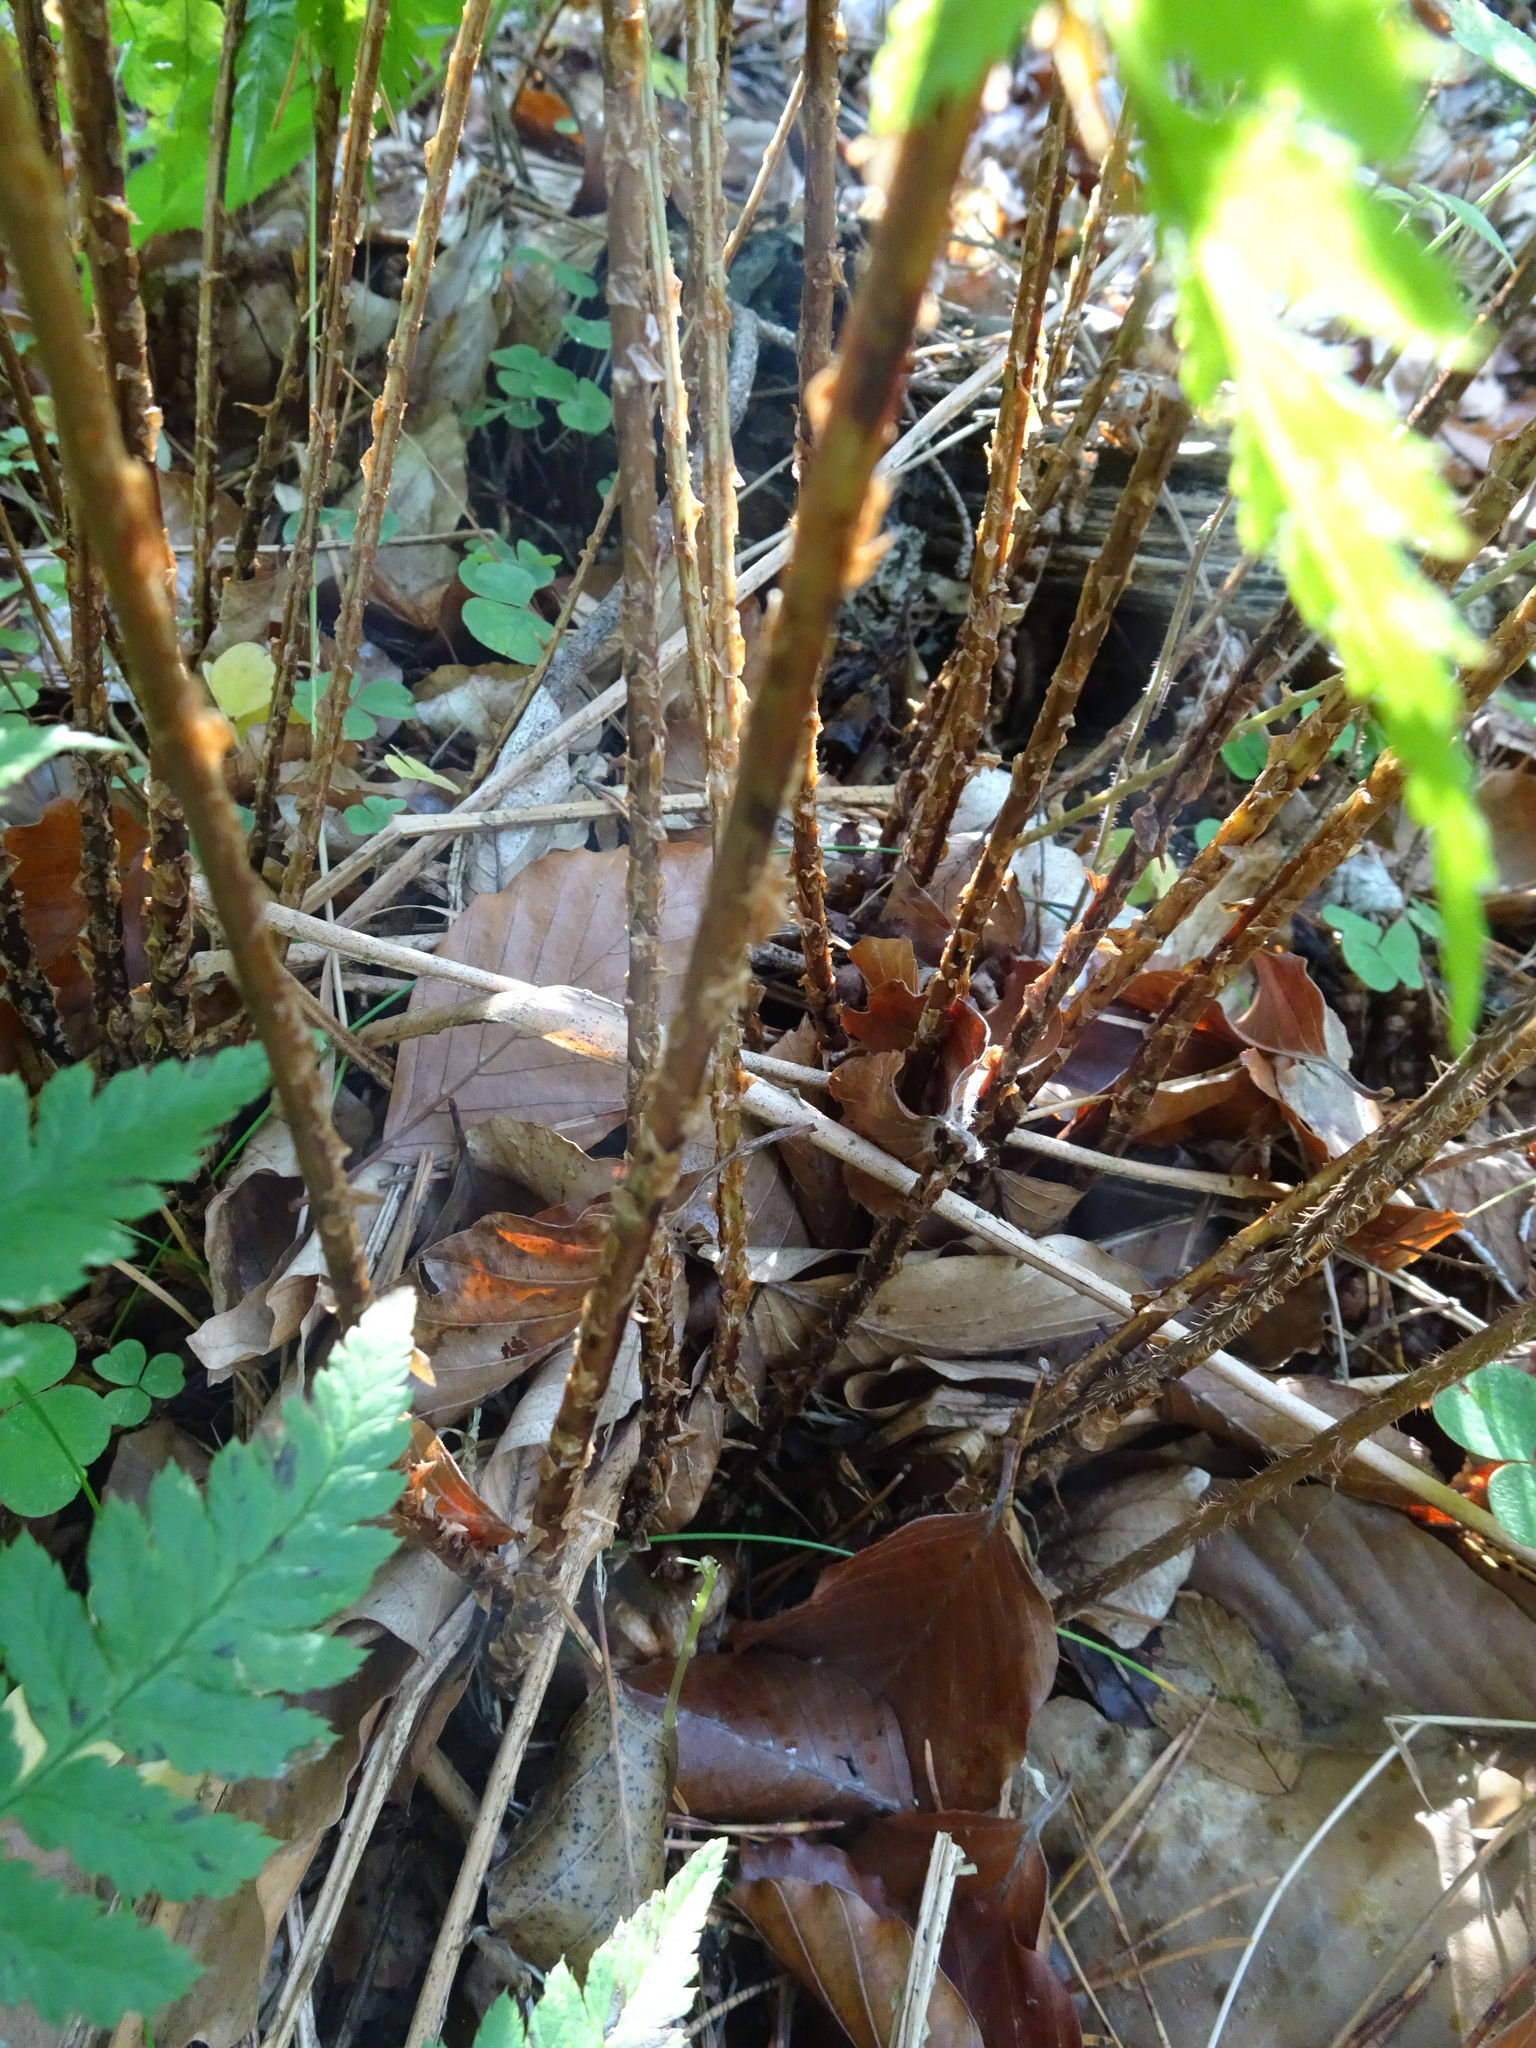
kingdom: Plantae
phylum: Tracheophyta
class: Polypodiopsida
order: Polypodiales
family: Dryopteridaceae
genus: Dryopteris
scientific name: Dryopteris carthusiana
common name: Narrow buckler-fern
